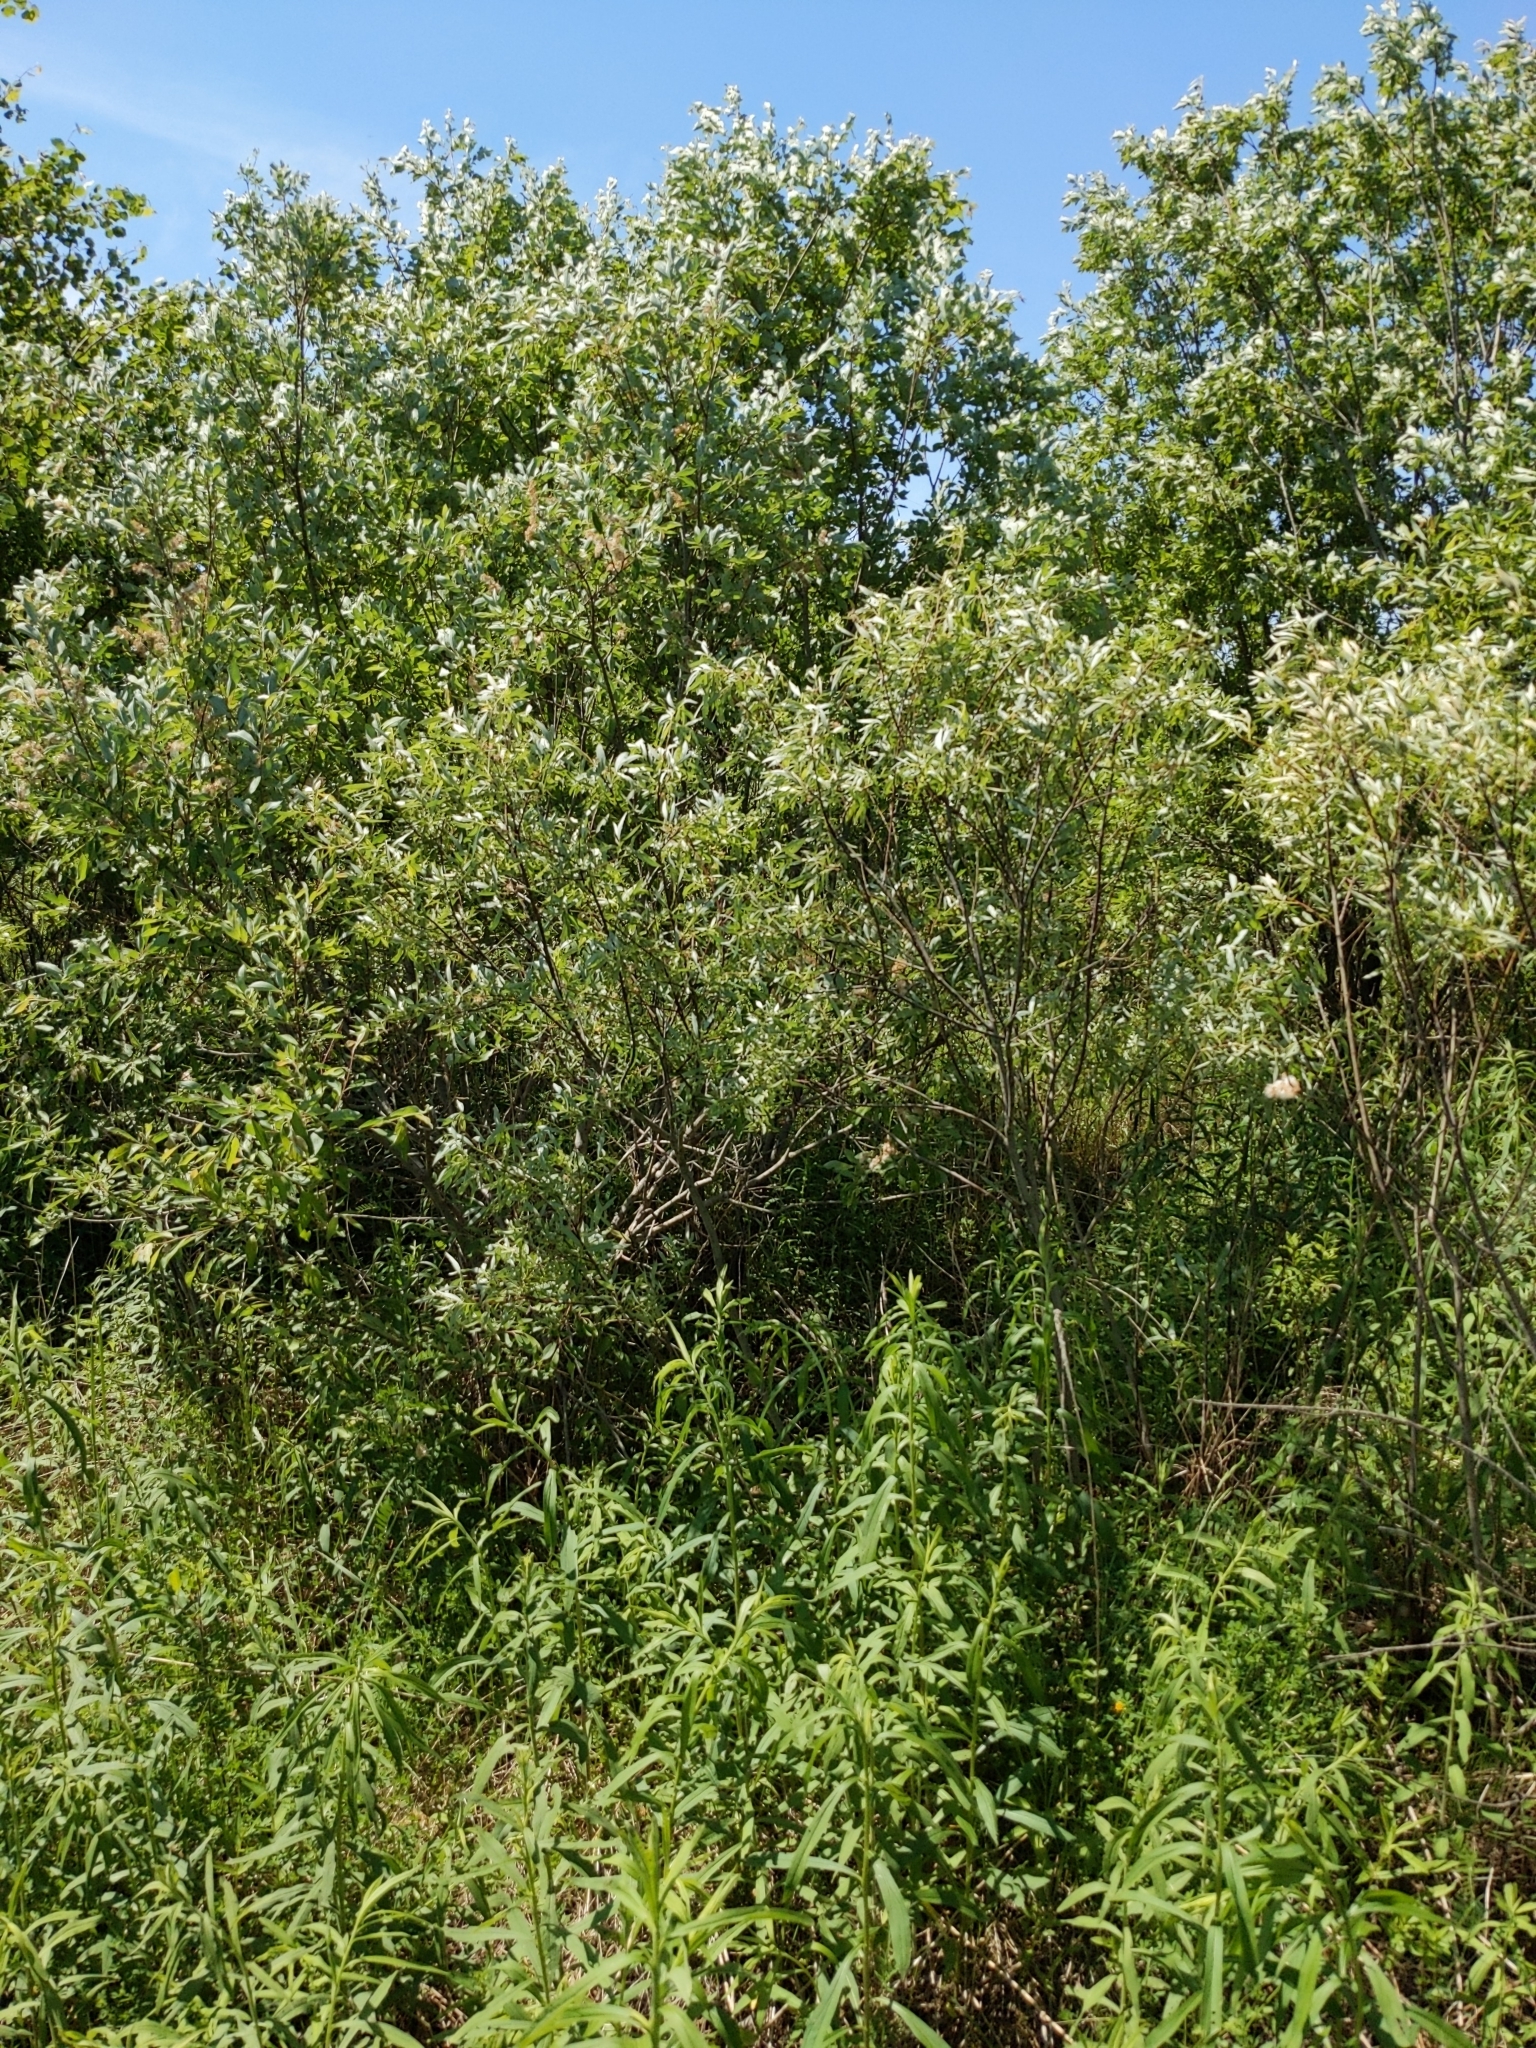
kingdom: Plantae
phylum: Tracheophyta
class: Magnoliopsida
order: Malpighiales
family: Salicaceae
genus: Salix
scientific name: Salix interior
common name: Sandbar willow
